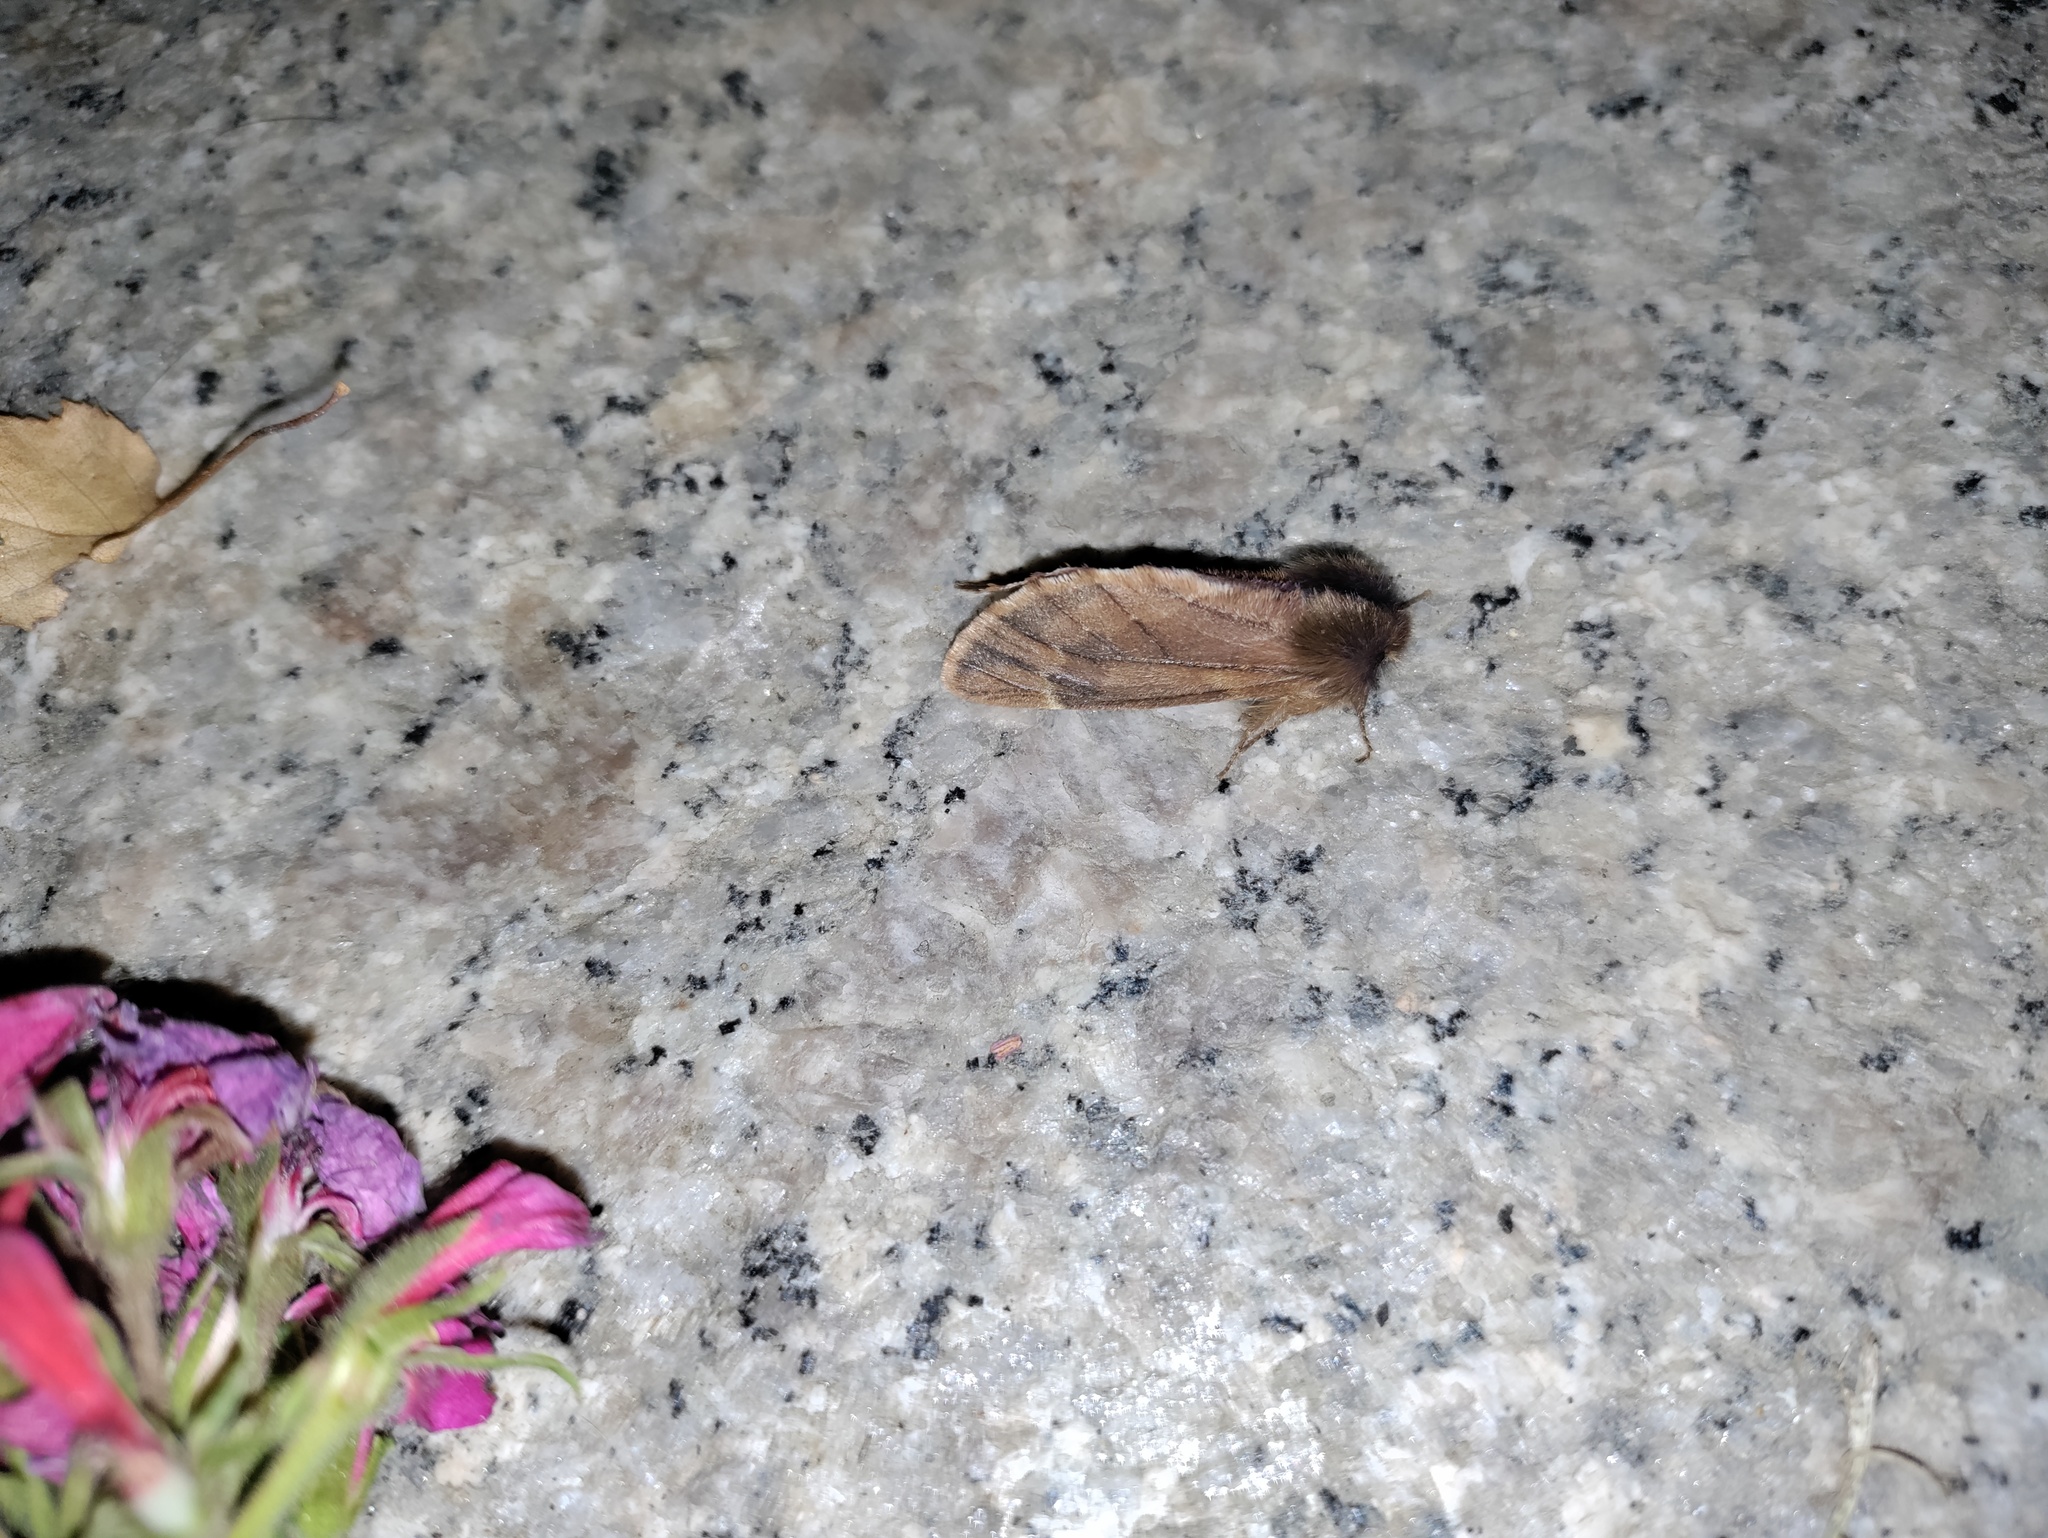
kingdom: Animalia
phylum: Arthropoda
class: Insecta
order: Lepidoptera
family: Notodontidae
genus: Ptilophora
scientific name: Ptilophora plumigera
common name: Plumed prominent
